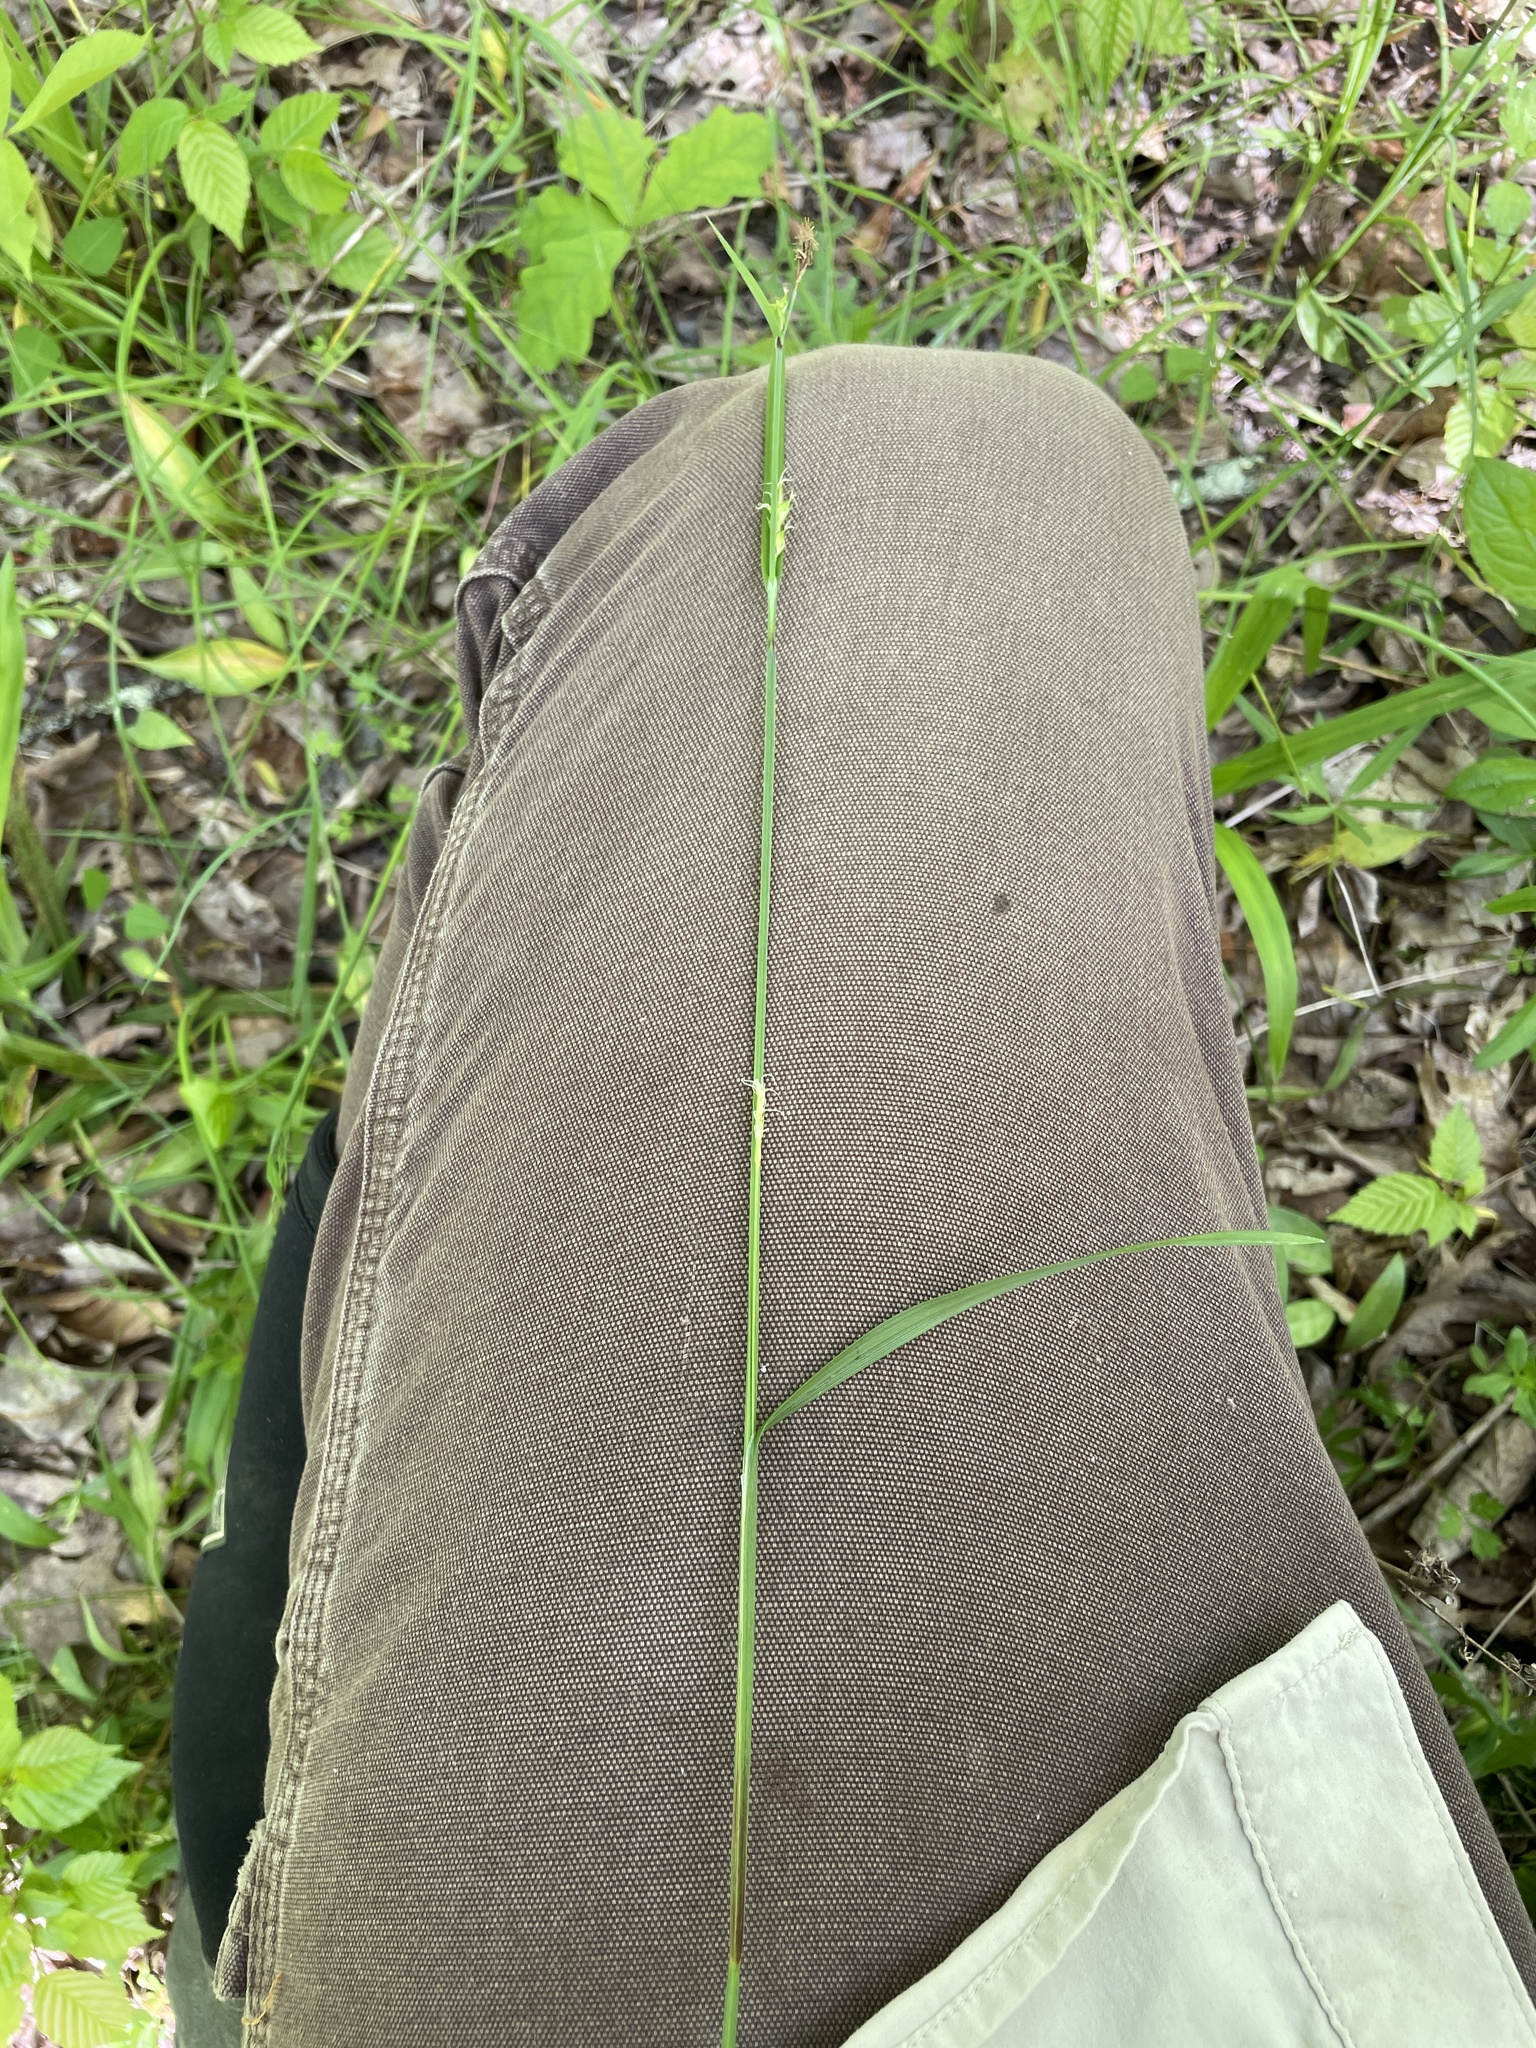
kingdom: Plantae
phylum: Tracheophyta
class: Liliopsida
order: Poales
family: Cyperaceae
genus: Carex
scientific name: Carex careyana
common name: Carey's sedge
